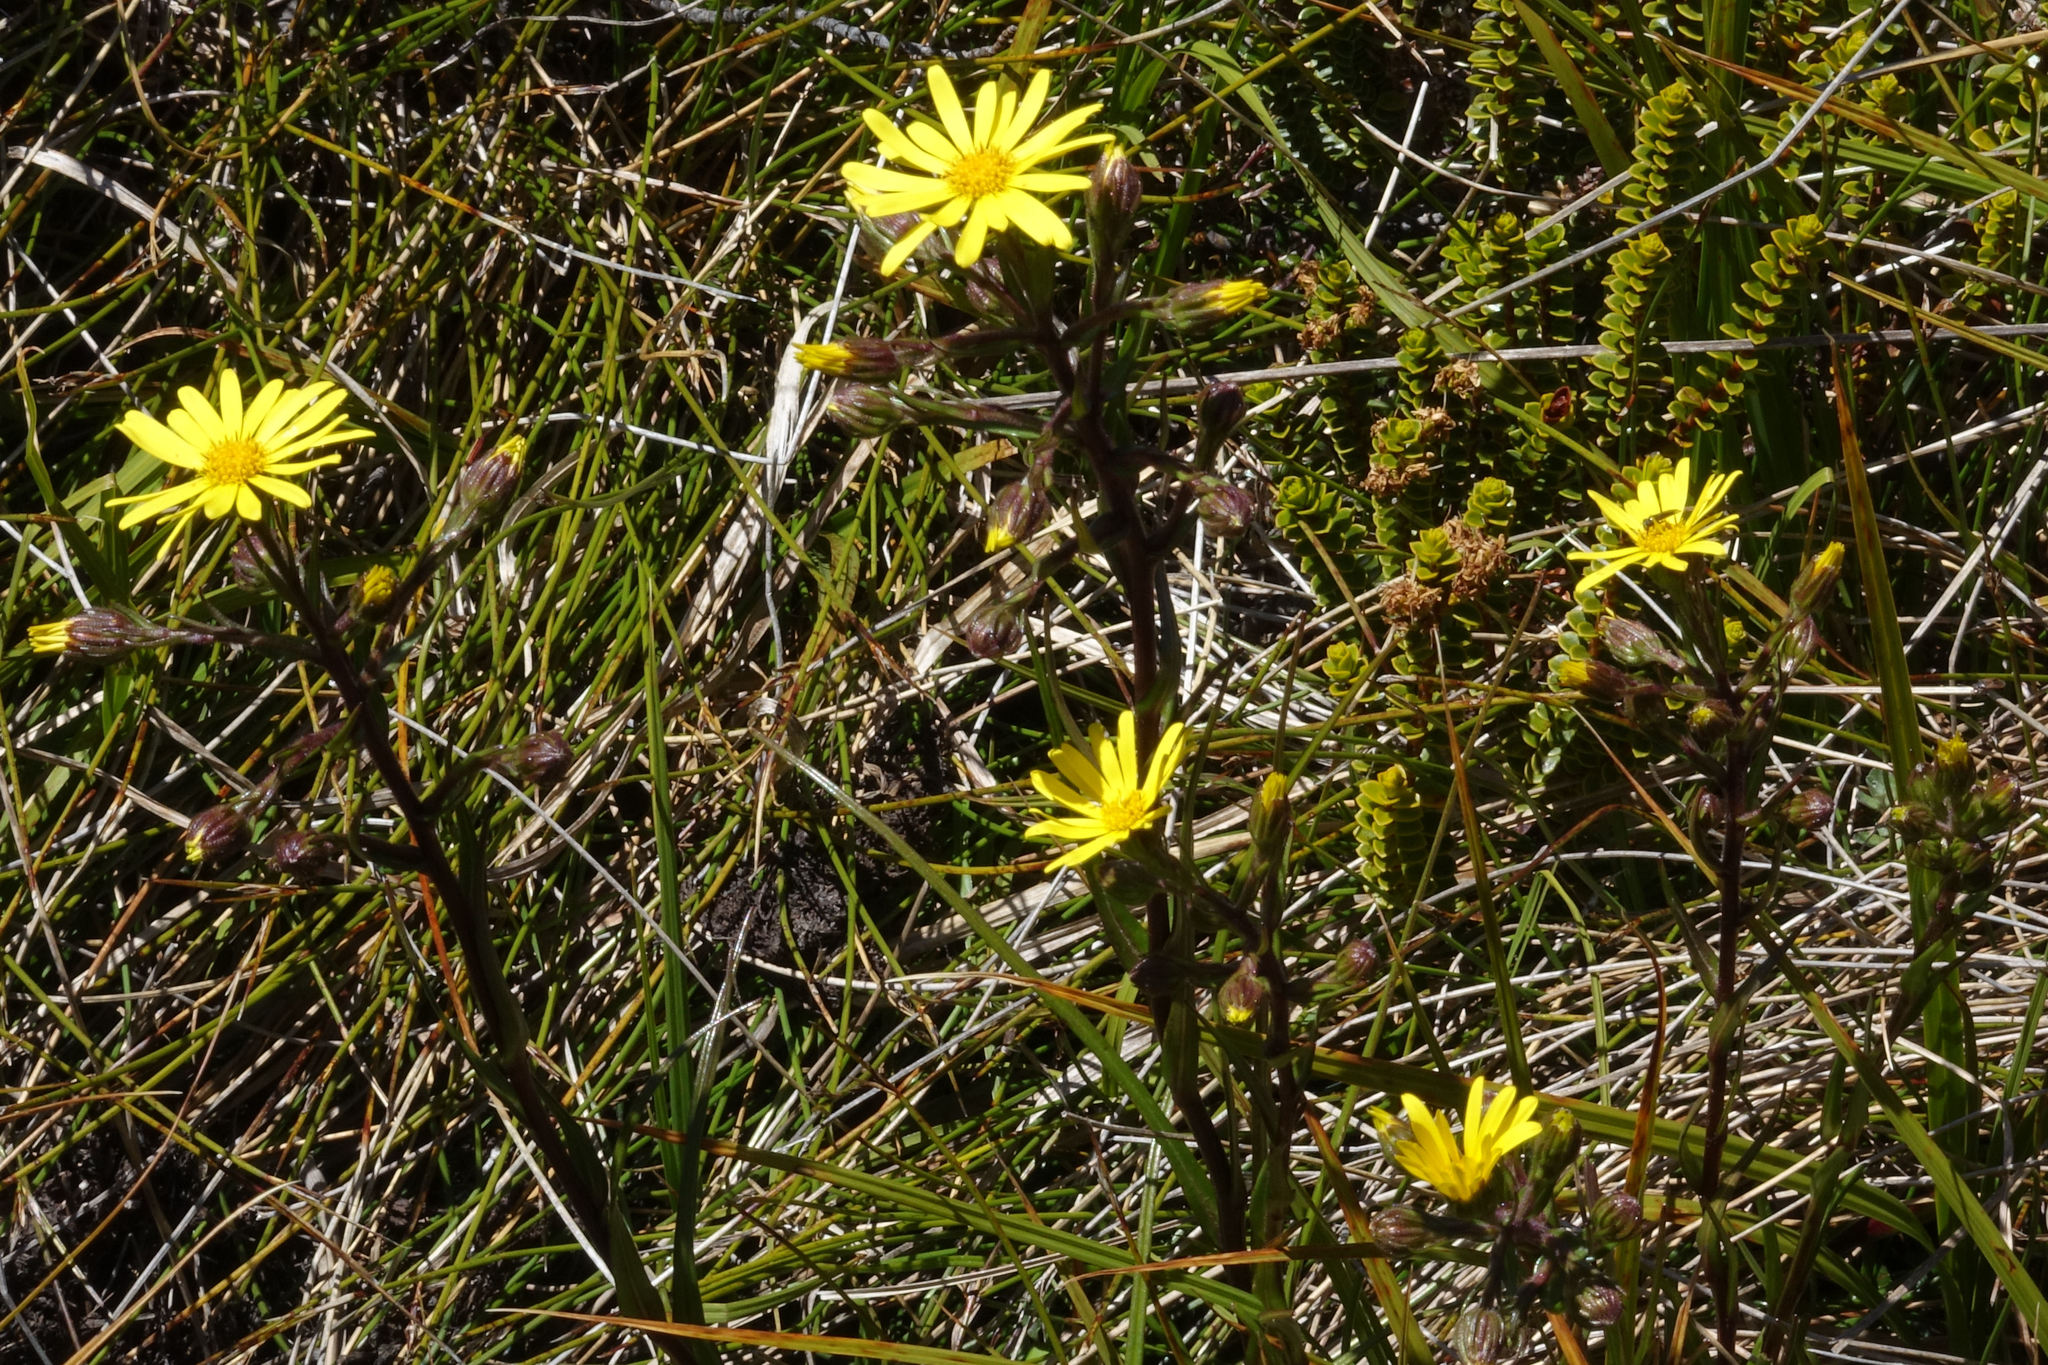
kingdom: Plantae
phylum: Tracheophyta
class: Magnoliopsida
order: Asterales
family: Asteraceae
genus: Dolichoglottis
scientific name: Dolichoglottis lyallii
